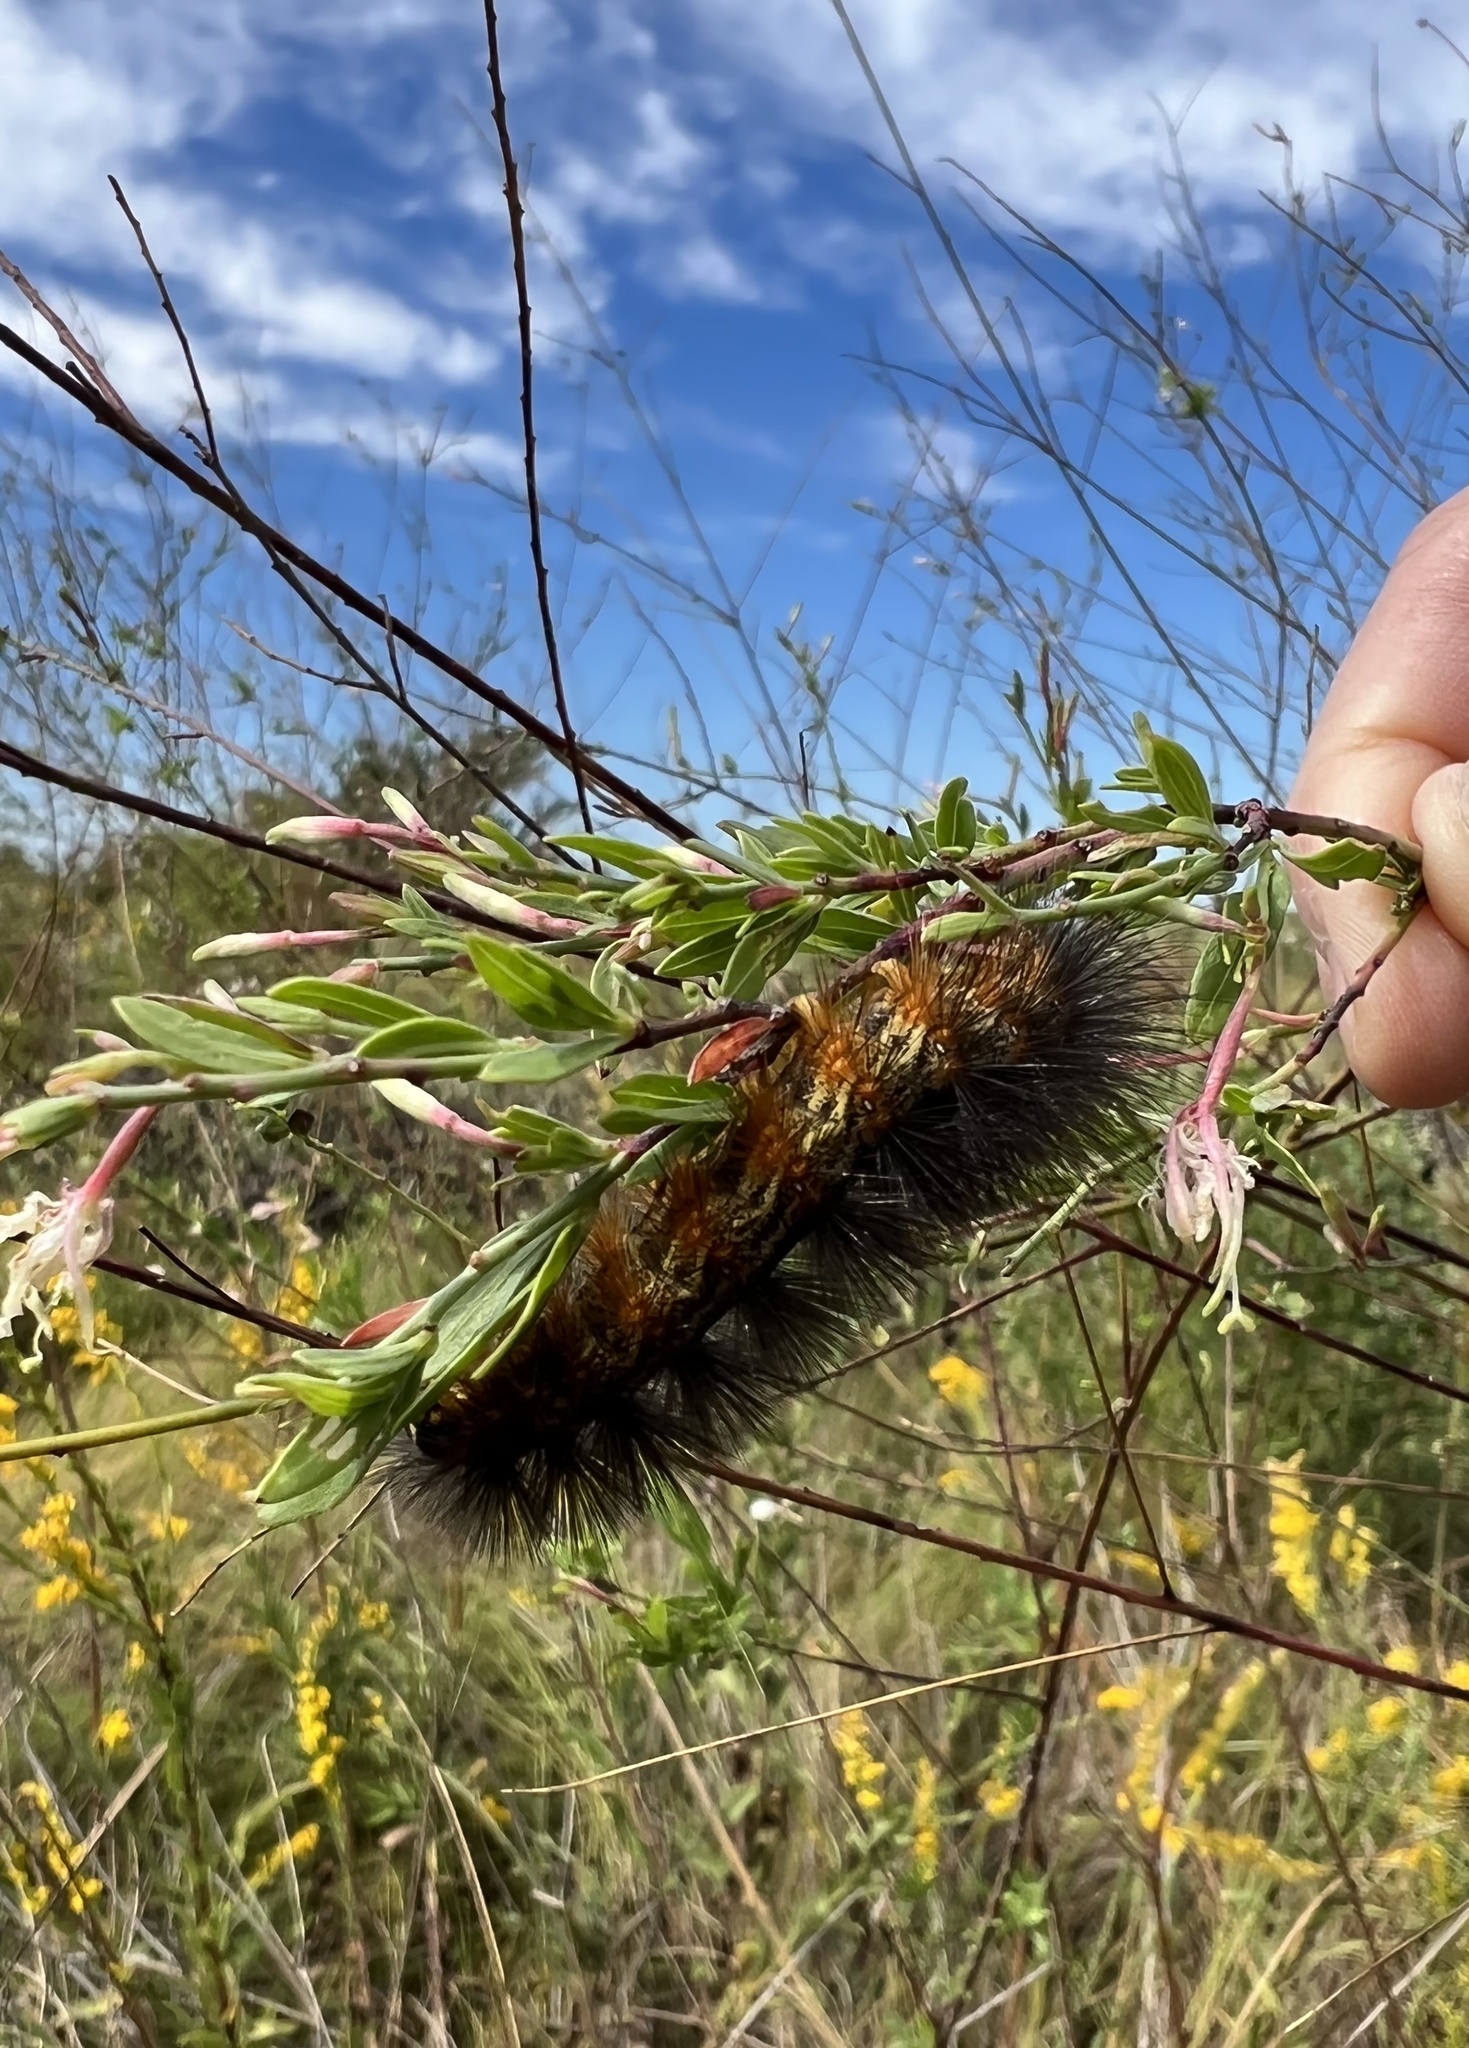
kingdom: Animalia
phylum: Arthropoda
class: Insecta
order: Lepidoptera
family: Erebidae
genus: Estigmene
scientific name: Estigmene acrea
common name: Salt marsh moth
